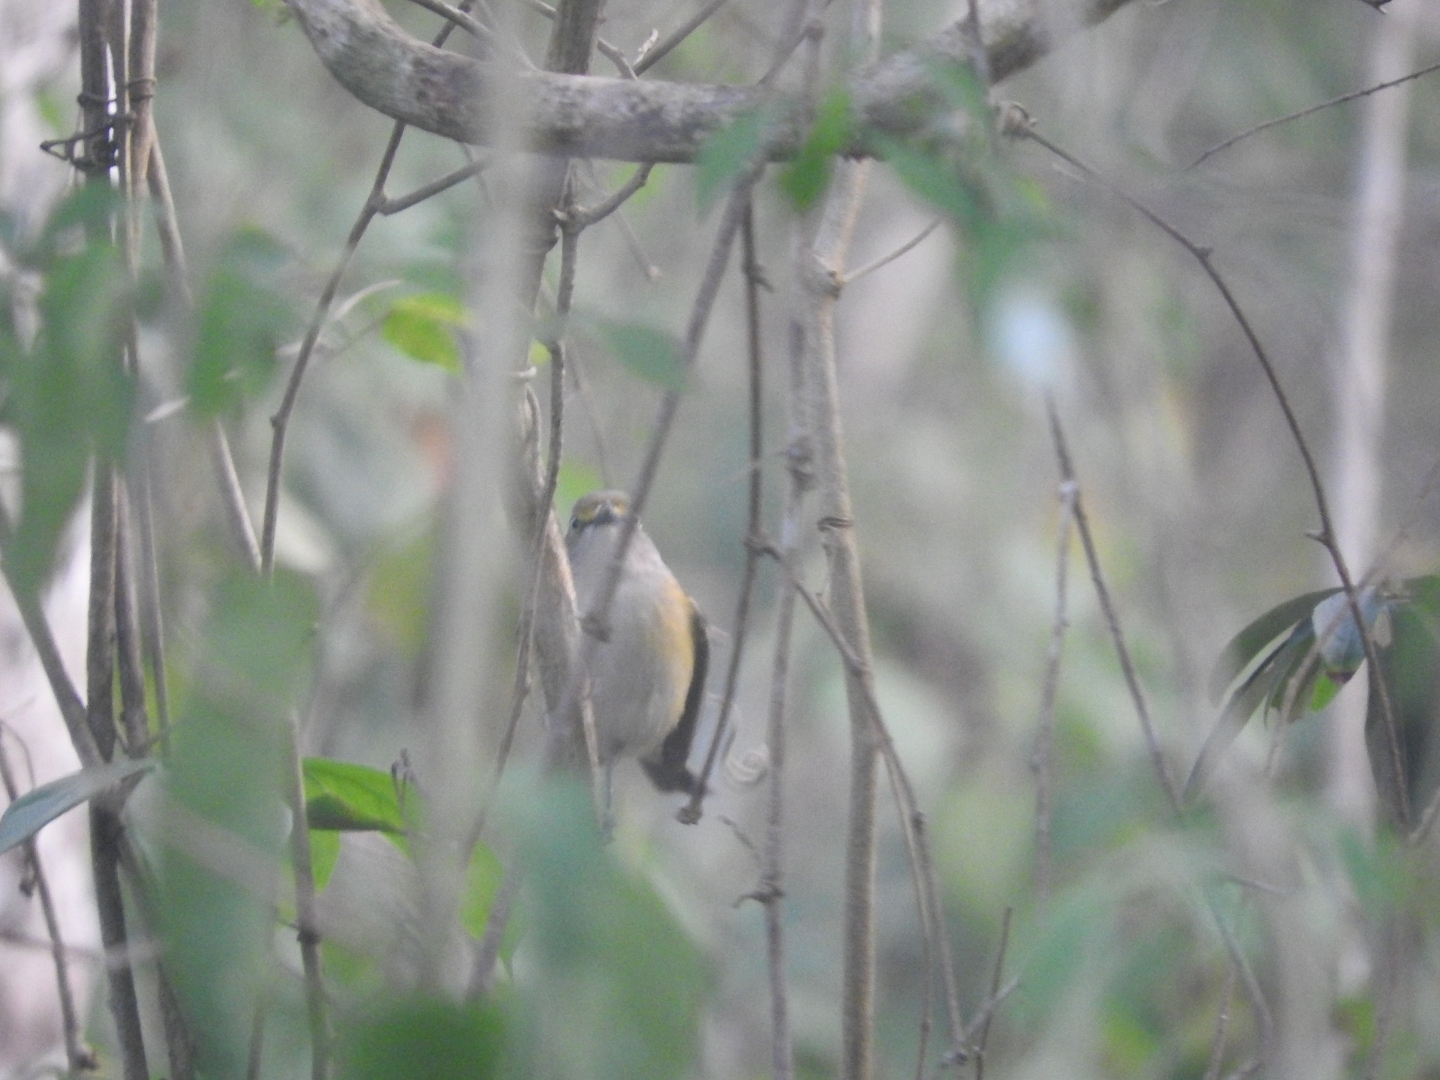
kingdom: Animalia
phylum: Chordata
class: Aves
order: Passeriformes
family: Vireonidae
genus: Vireo
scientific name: Vireo griseus
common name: White-eyed vireo
